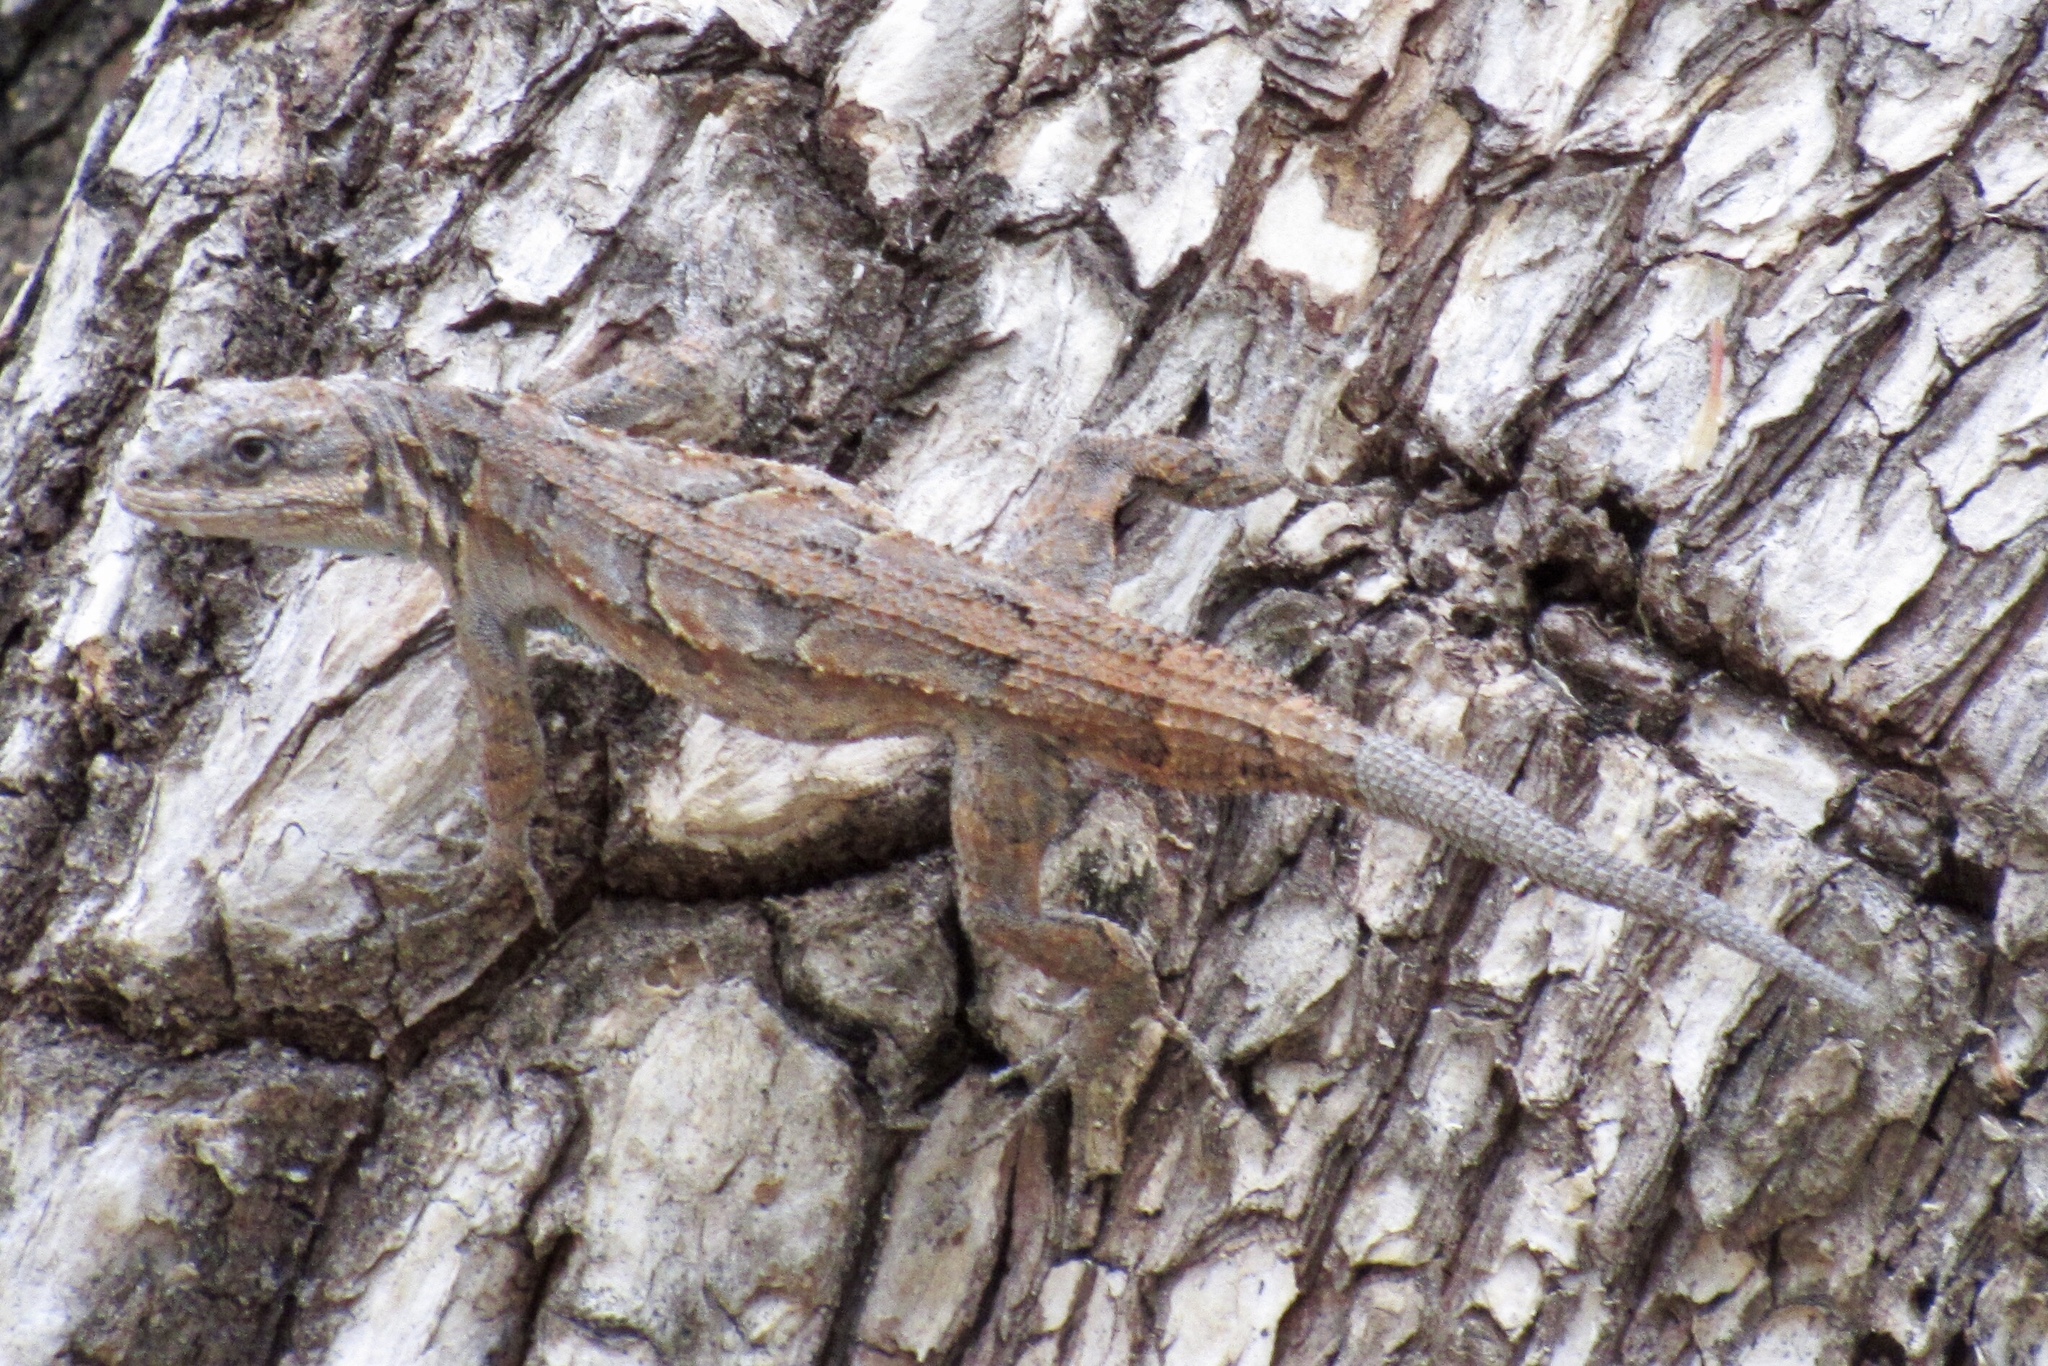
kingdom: Animalia
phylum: Chordata
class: Squamata
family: Phrynosomatidae
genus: Urosaurus
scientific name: Urosaurus ornatus
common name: Ornate tree lizard
